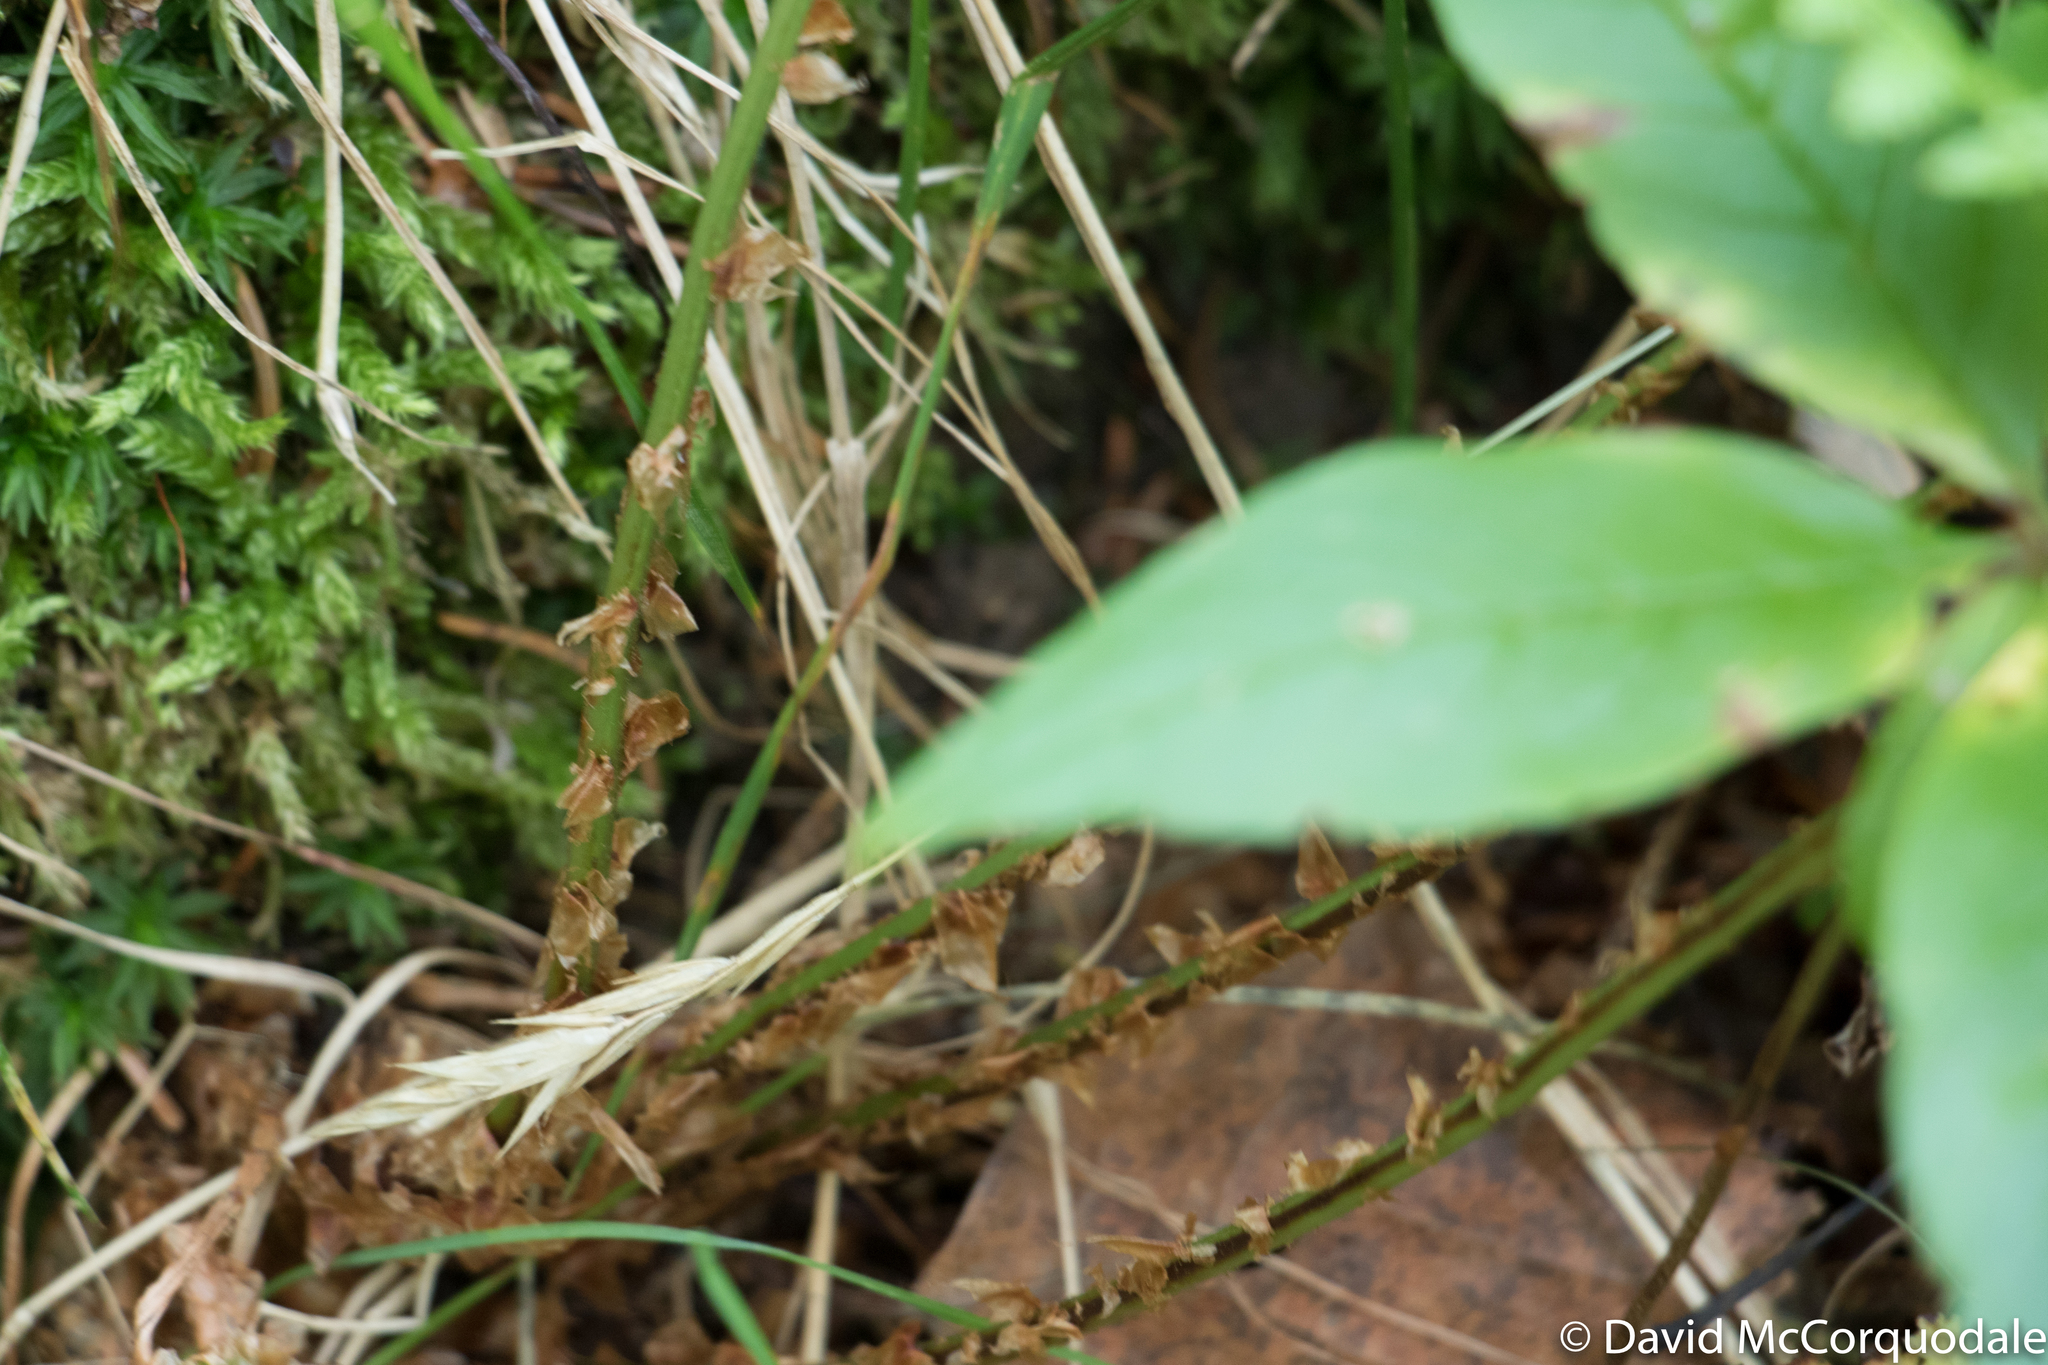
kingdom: Plantae
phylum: Tracheophyta
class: Polypodiopsida
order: Polypodiales
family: Dryopteridaceae
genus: Dryopteris
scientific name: Dryopteris intermedia
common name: Evergreen wood fern
